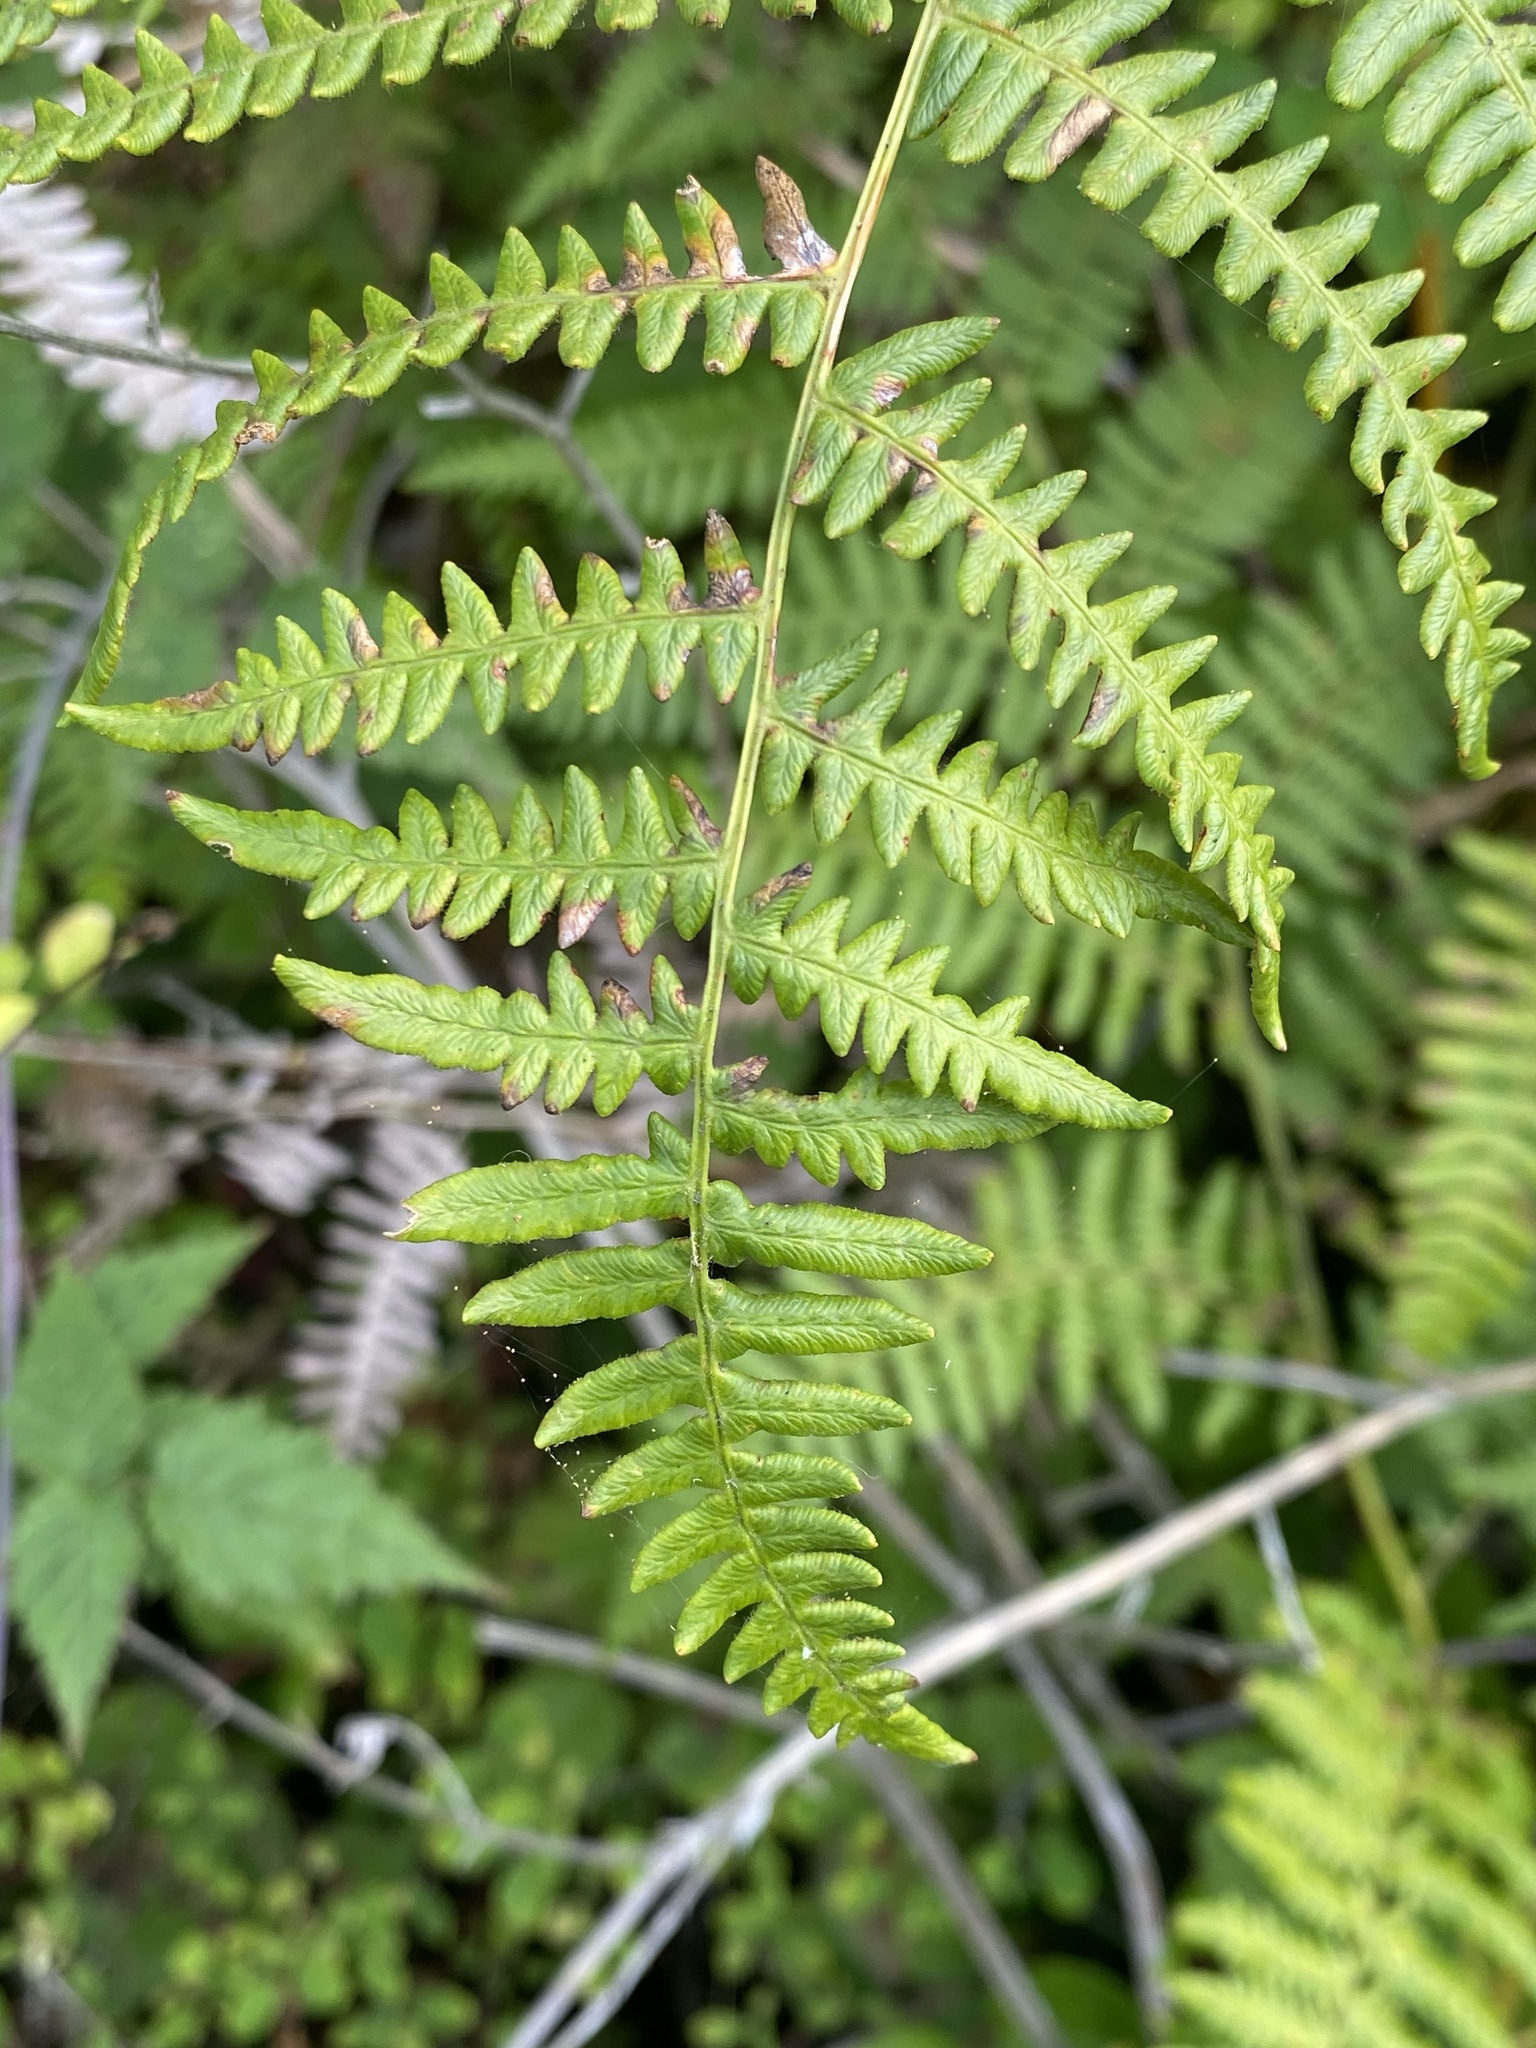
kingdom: Plantae
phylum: Tracheophyta
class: Polypodiopsida
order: Polypodiales
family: Dennstaedtiaceae
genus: Pteridium
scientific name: Pteridium aquilinum
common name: Bracken
